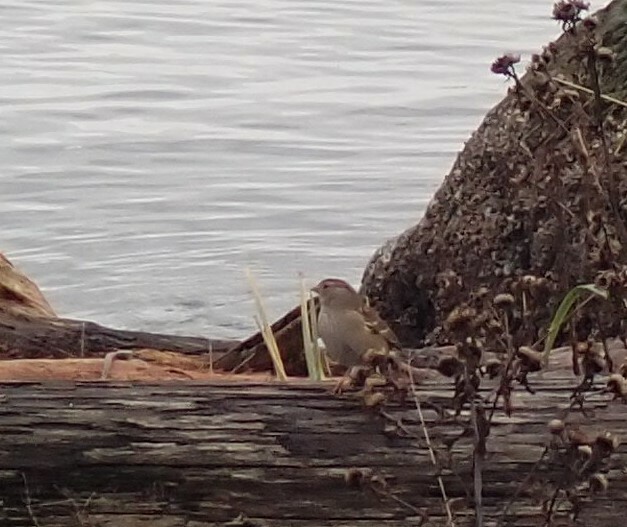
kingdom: Animalia
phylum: Chordata
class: Aves
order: Passeriformes
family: Passerellidae
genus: Zonotrichia
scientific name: Zonotrichia atricapilla
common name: Golden-crowned sparrow
